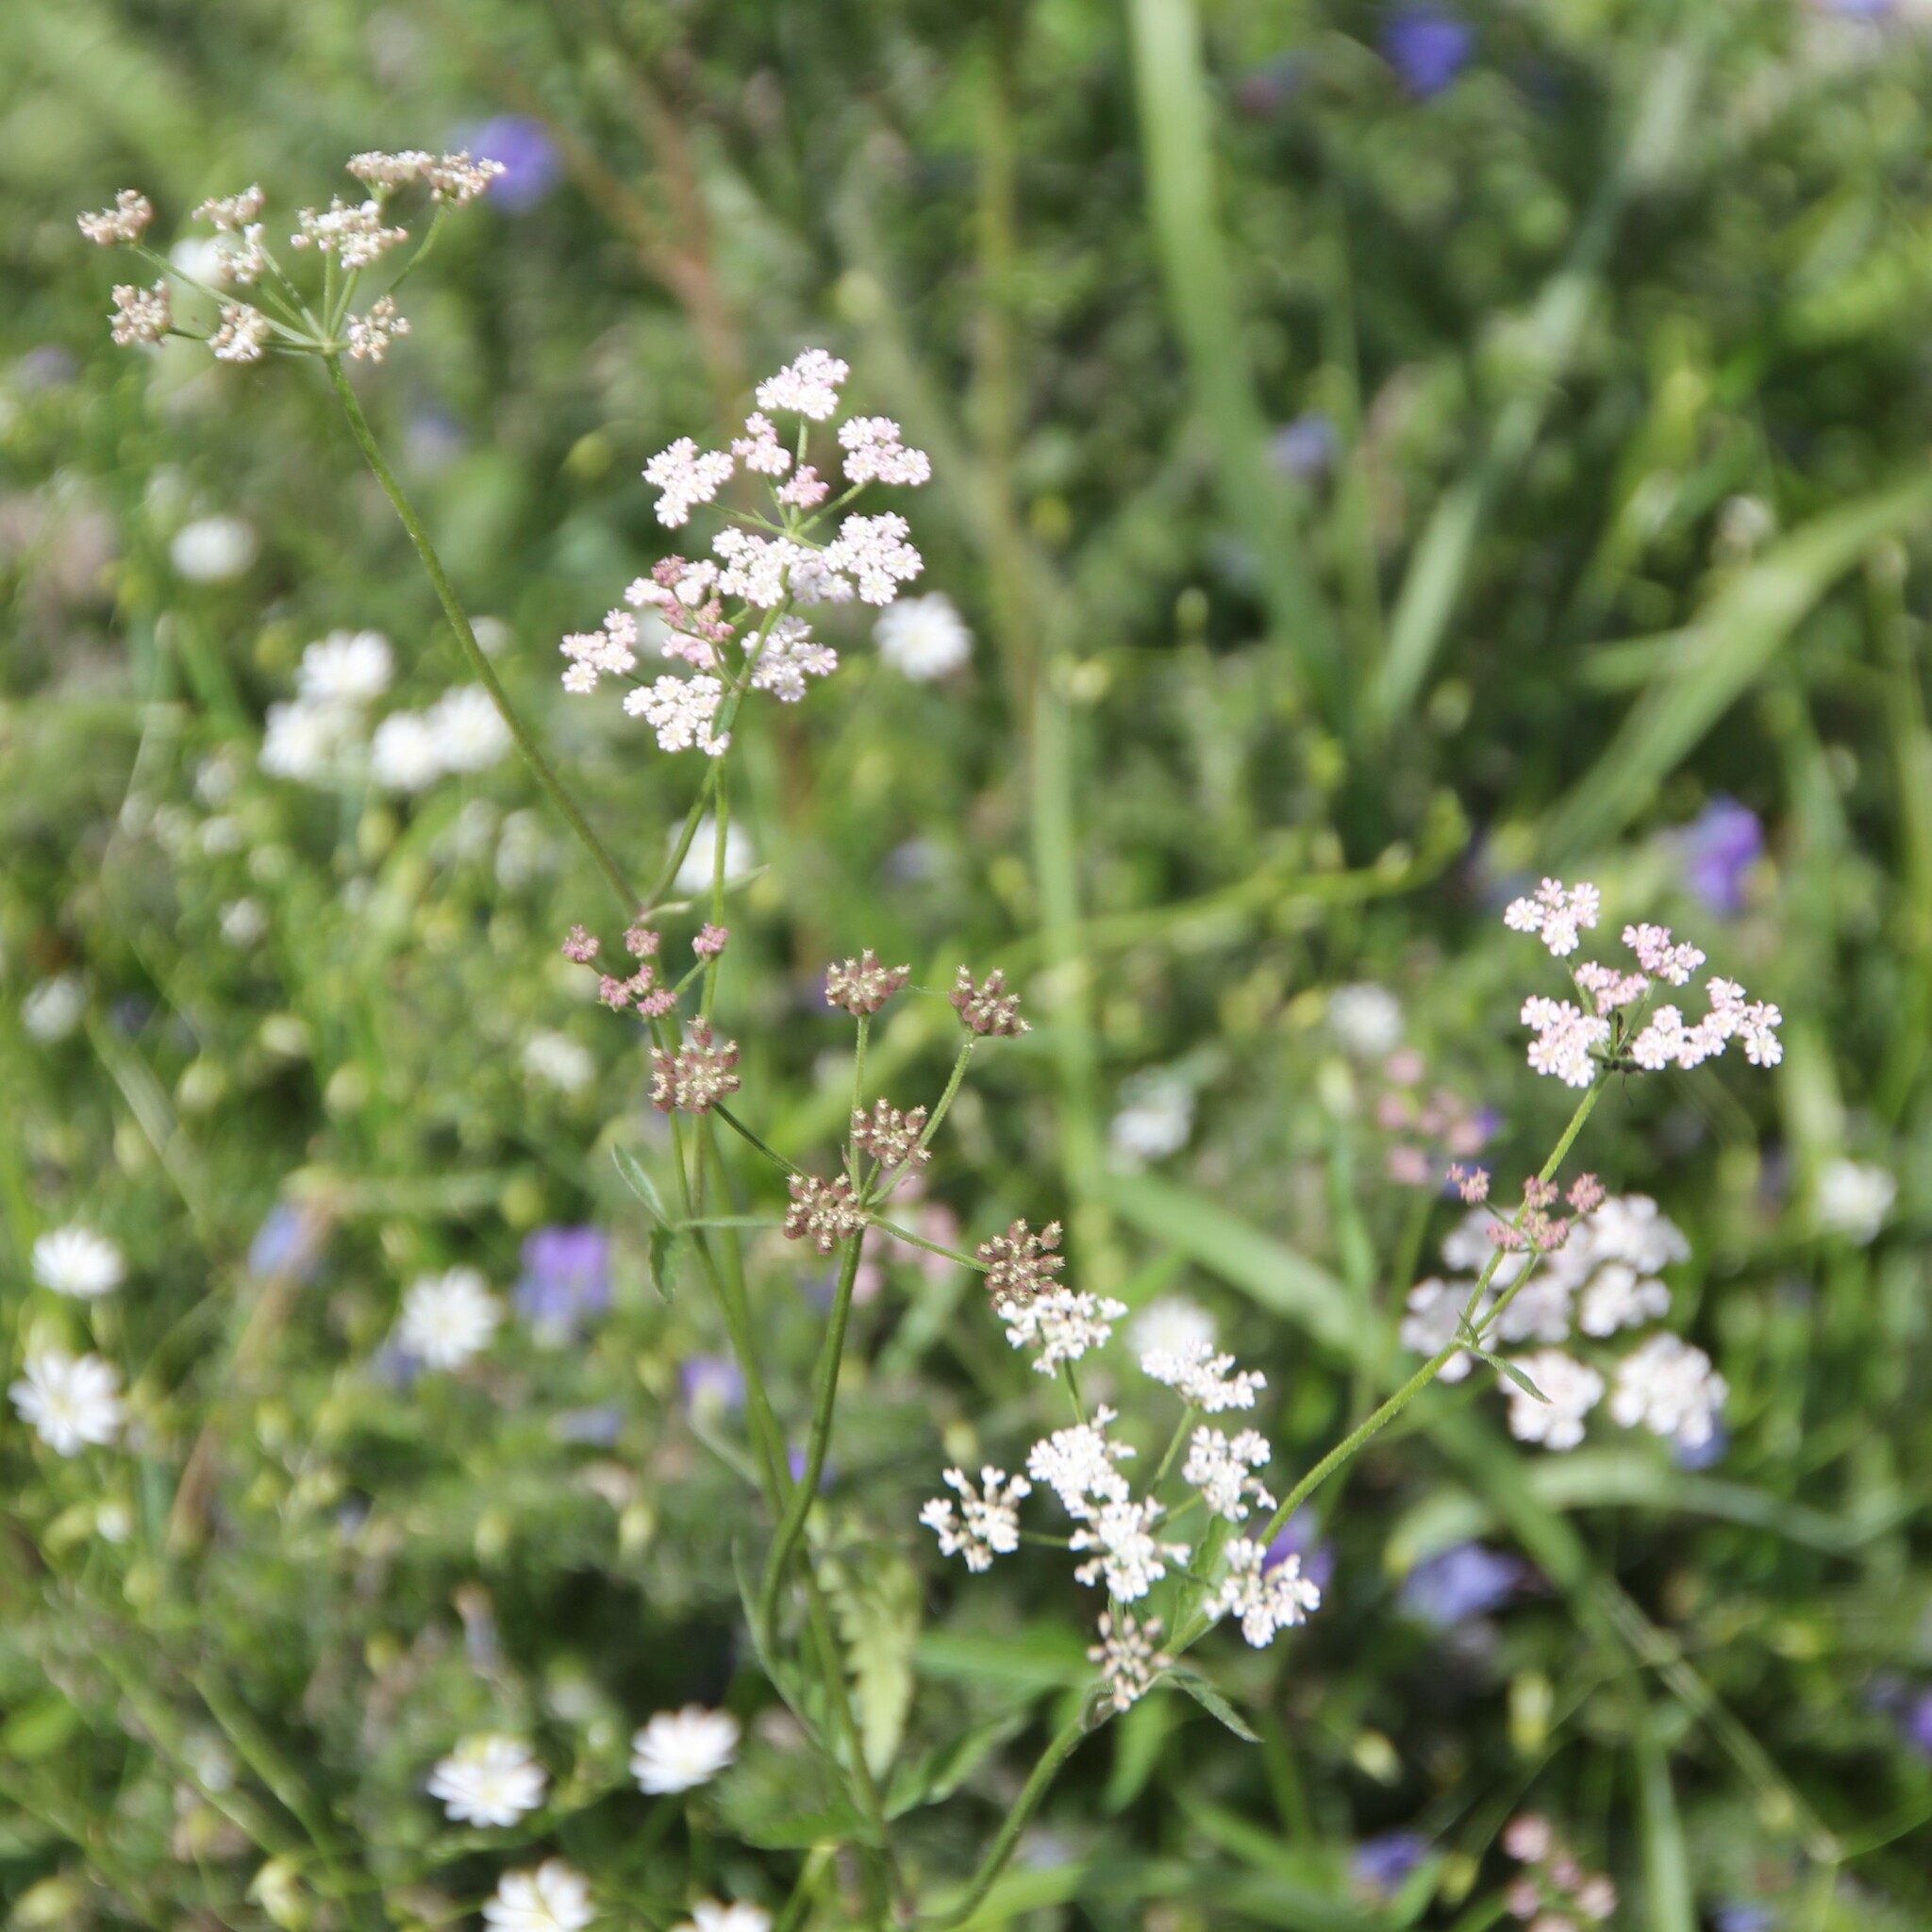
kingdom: Plantae
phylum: Tracheophyta
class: Magnoliopsida
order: Apiales
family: Apiaceae
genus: Torilis
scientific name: Torilis japonica
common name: Upright hedge-parsley
